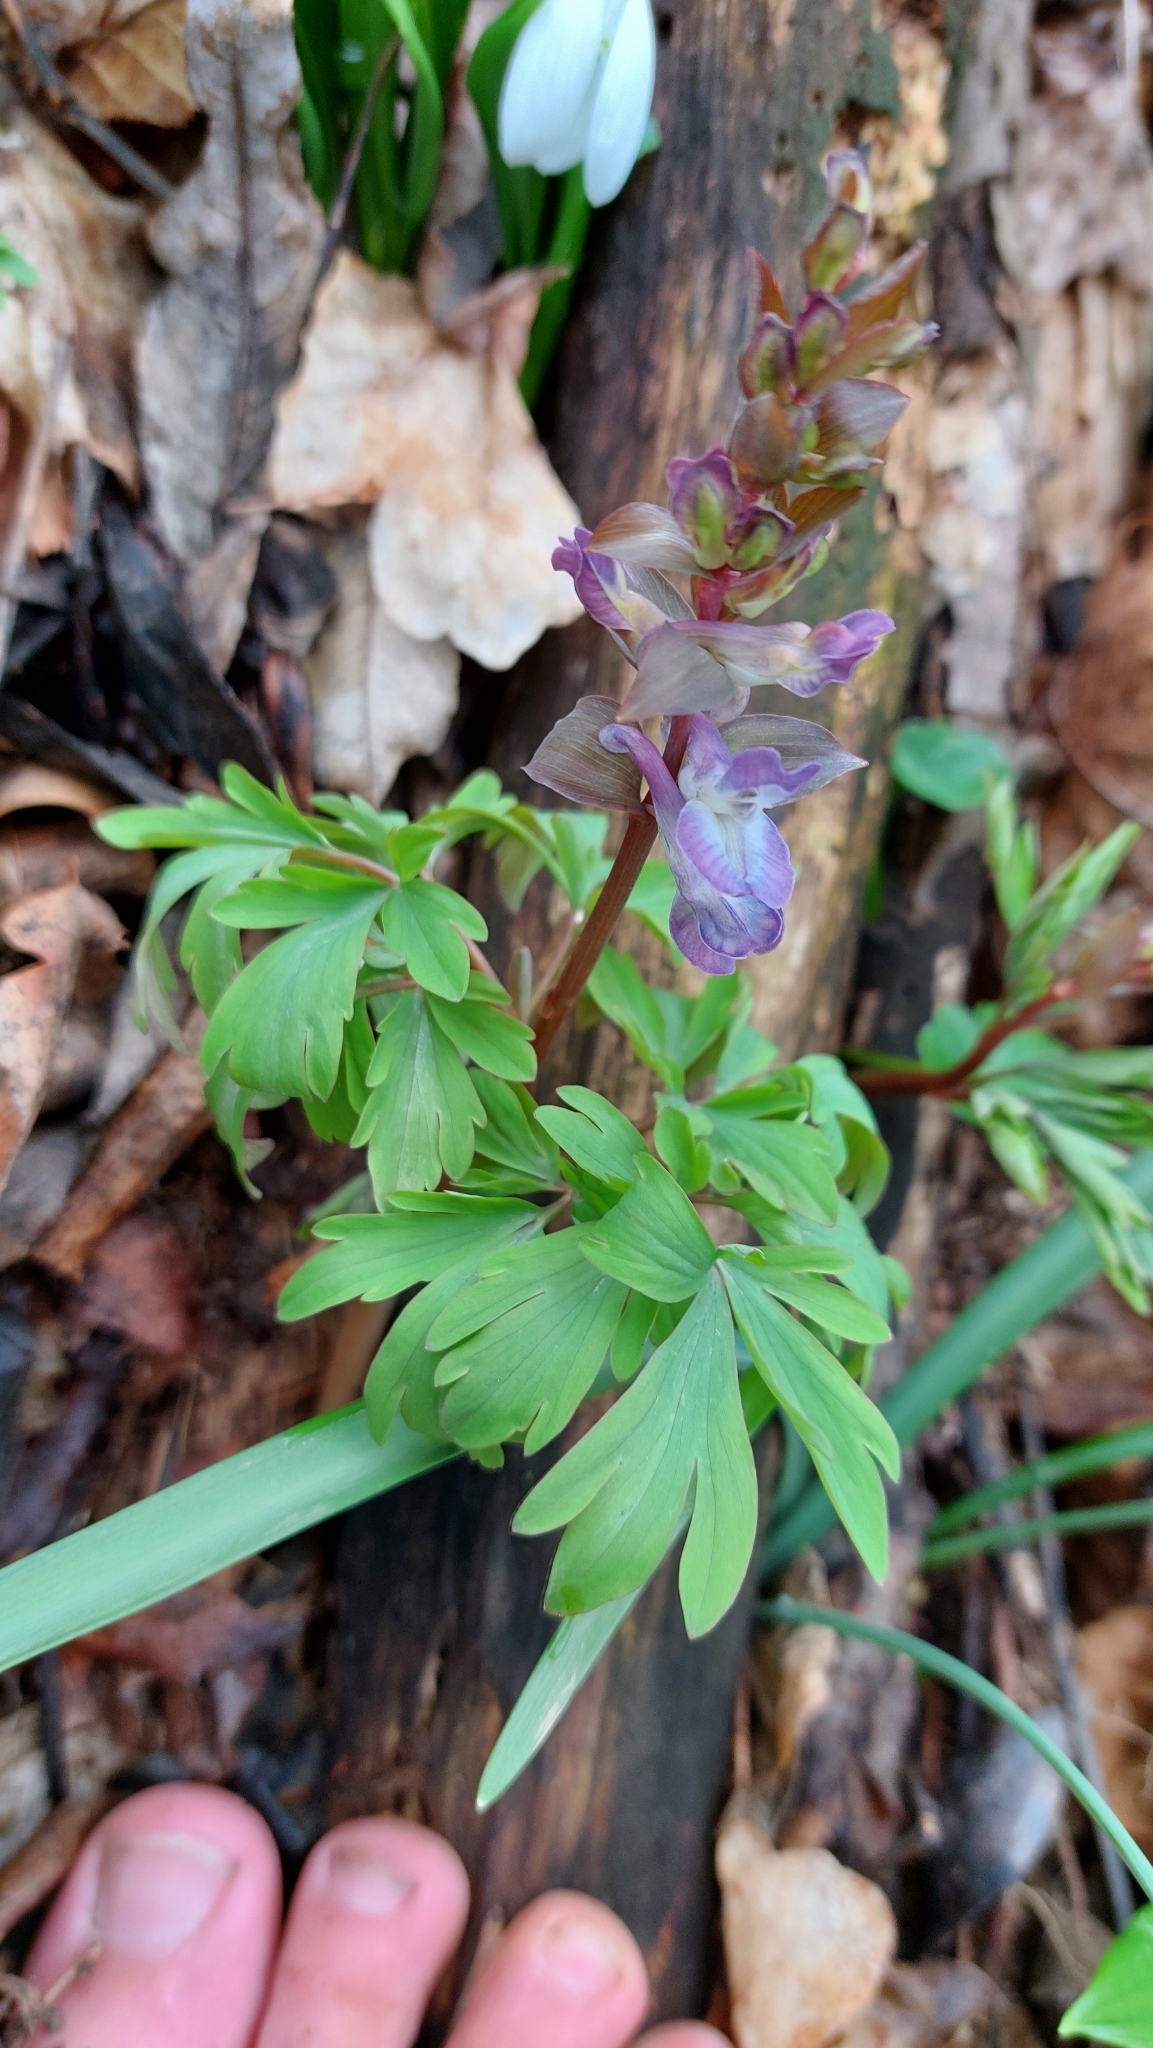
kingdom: Plantae
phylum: Tracheophyta
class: Magnoliopsida
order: Ranunculales
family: Papaveraceae
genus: Corydalis
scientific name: Corydalis cava
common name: Hollowroot
